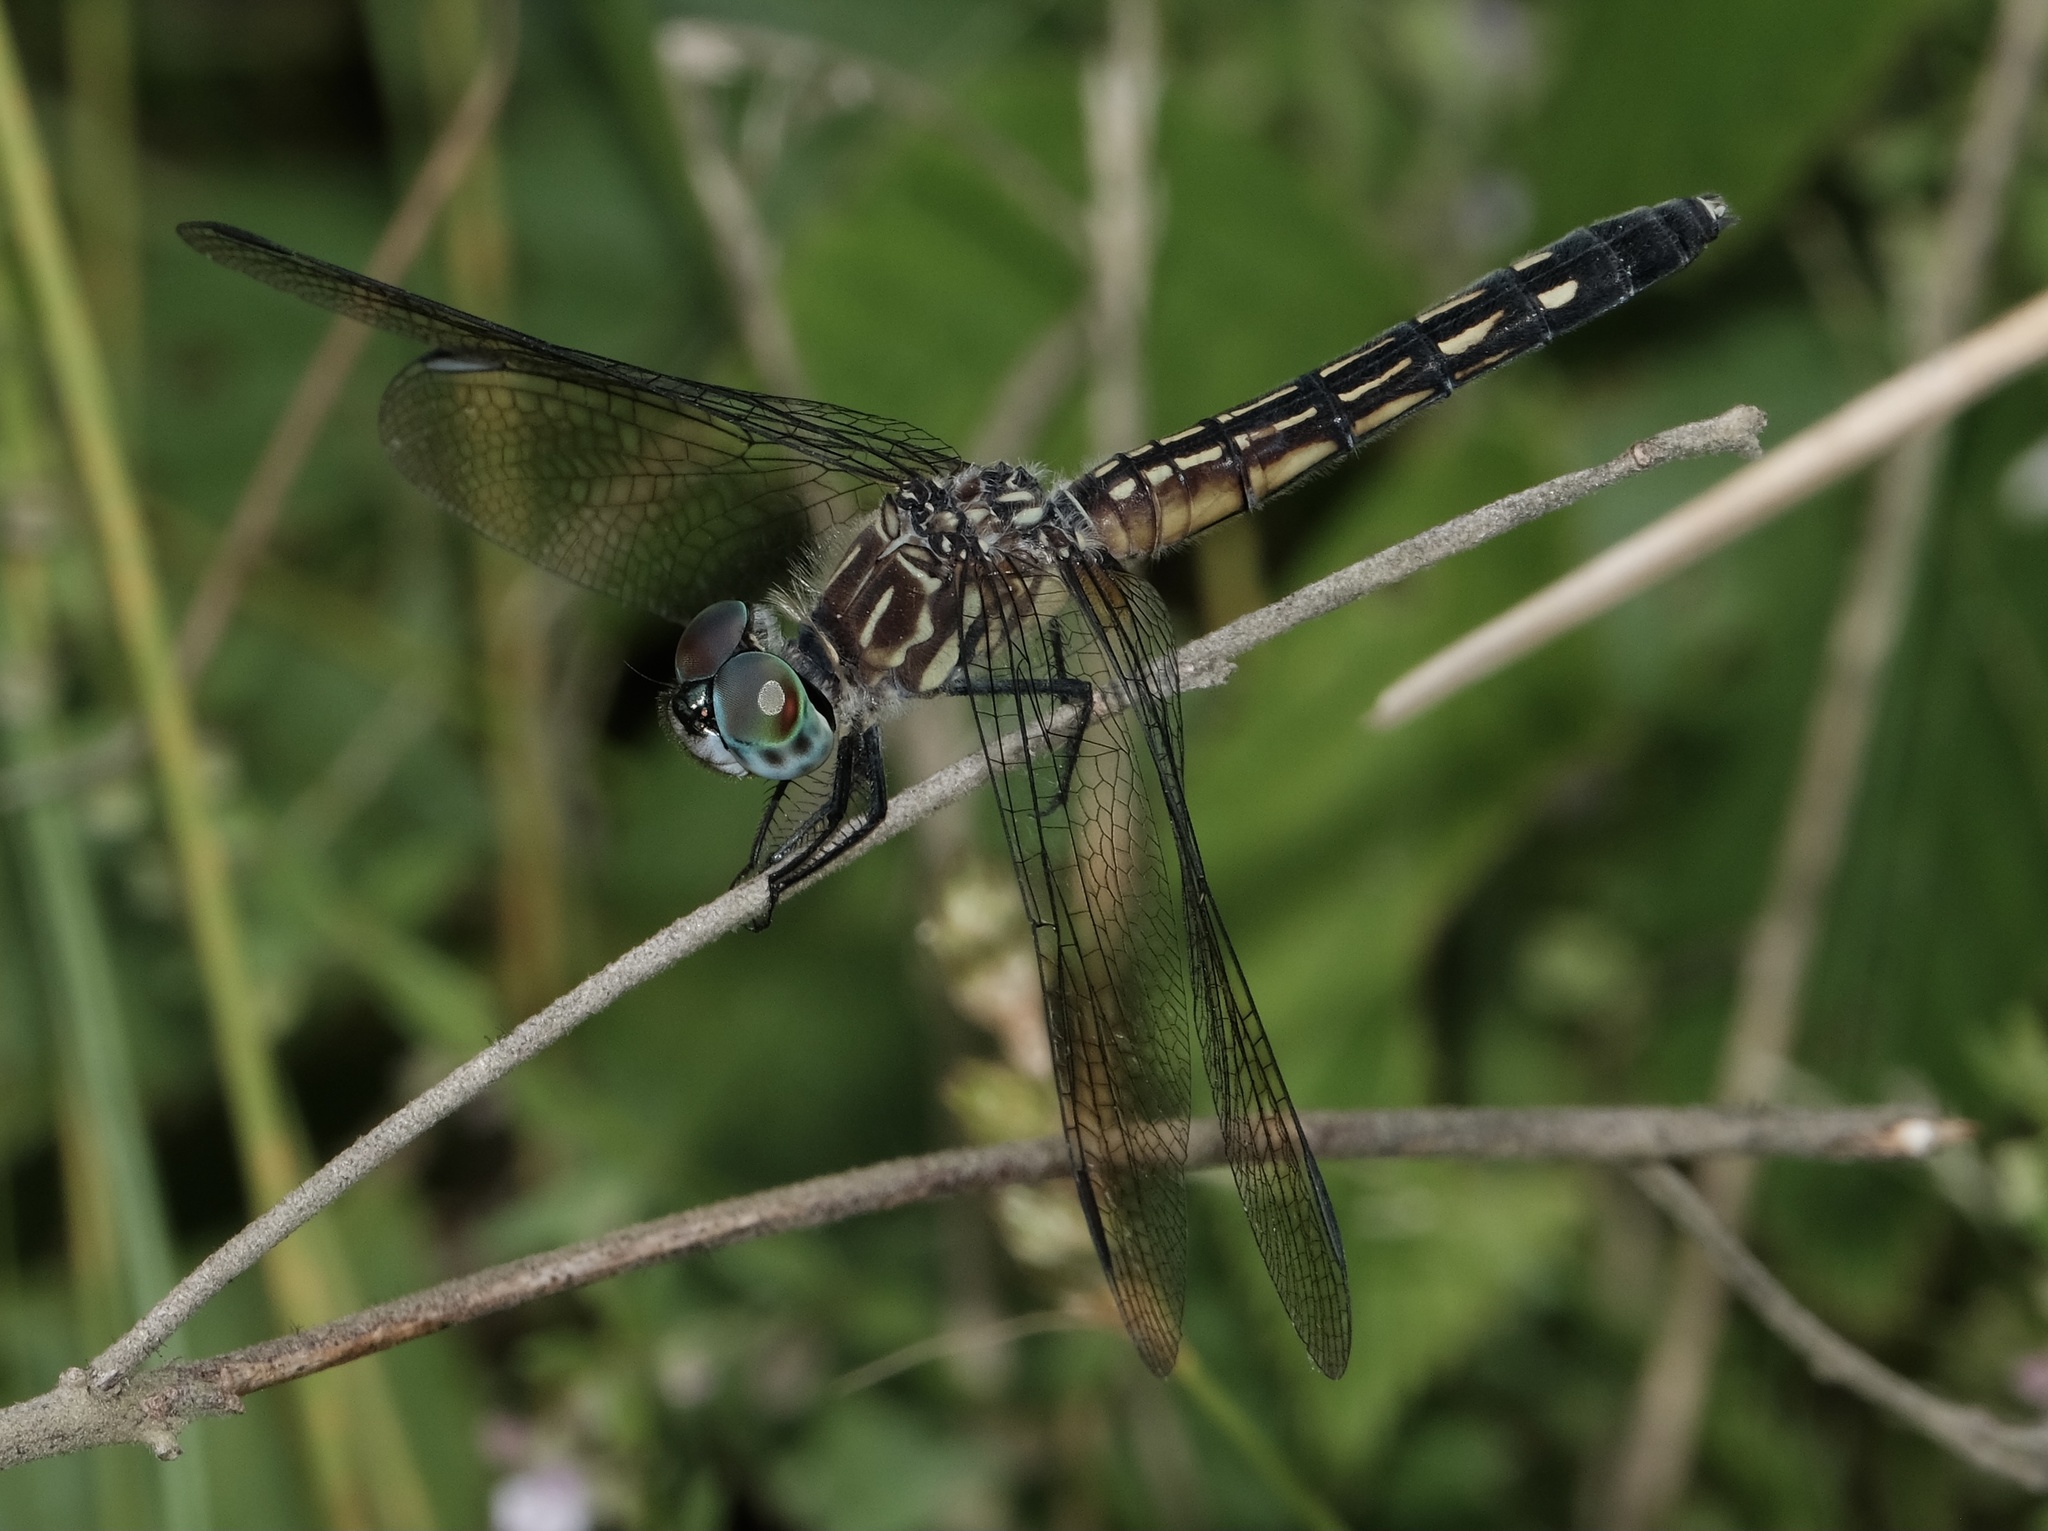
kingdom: Animalia
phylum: Arthropoda
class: Insecta
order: Odonata
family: Libellulidae
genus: Pachydiplax
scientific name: Pachydiplax longipennis
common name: Blue dasher
